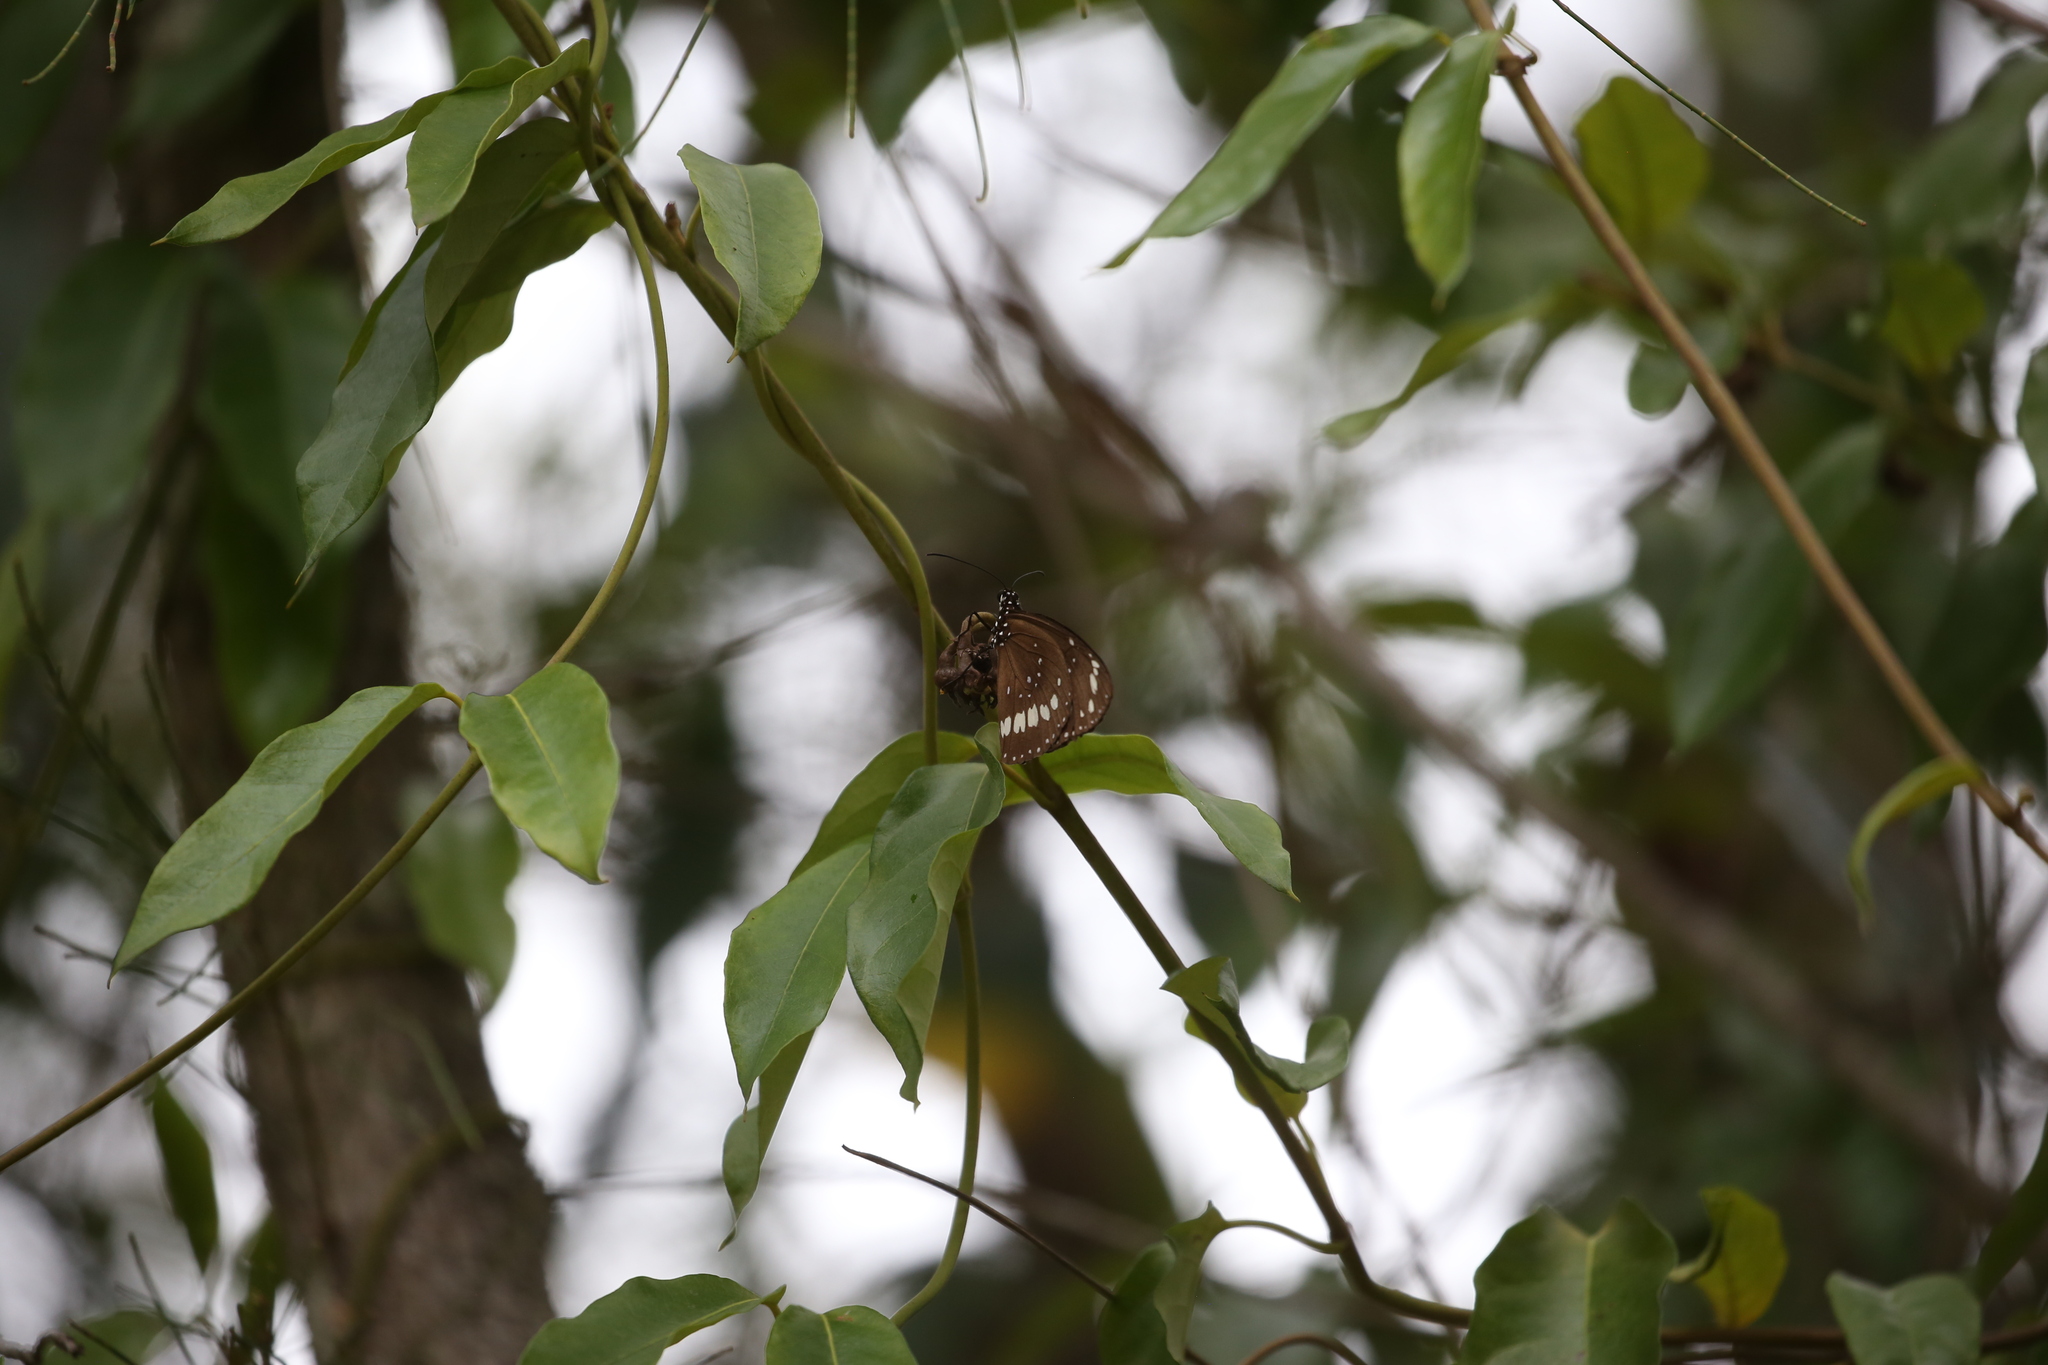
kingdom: Animalia
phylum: Arthropoda
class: Insecta
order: Lepidoptera
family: Nymphalidae
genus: Euploea
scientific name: Euploea core
